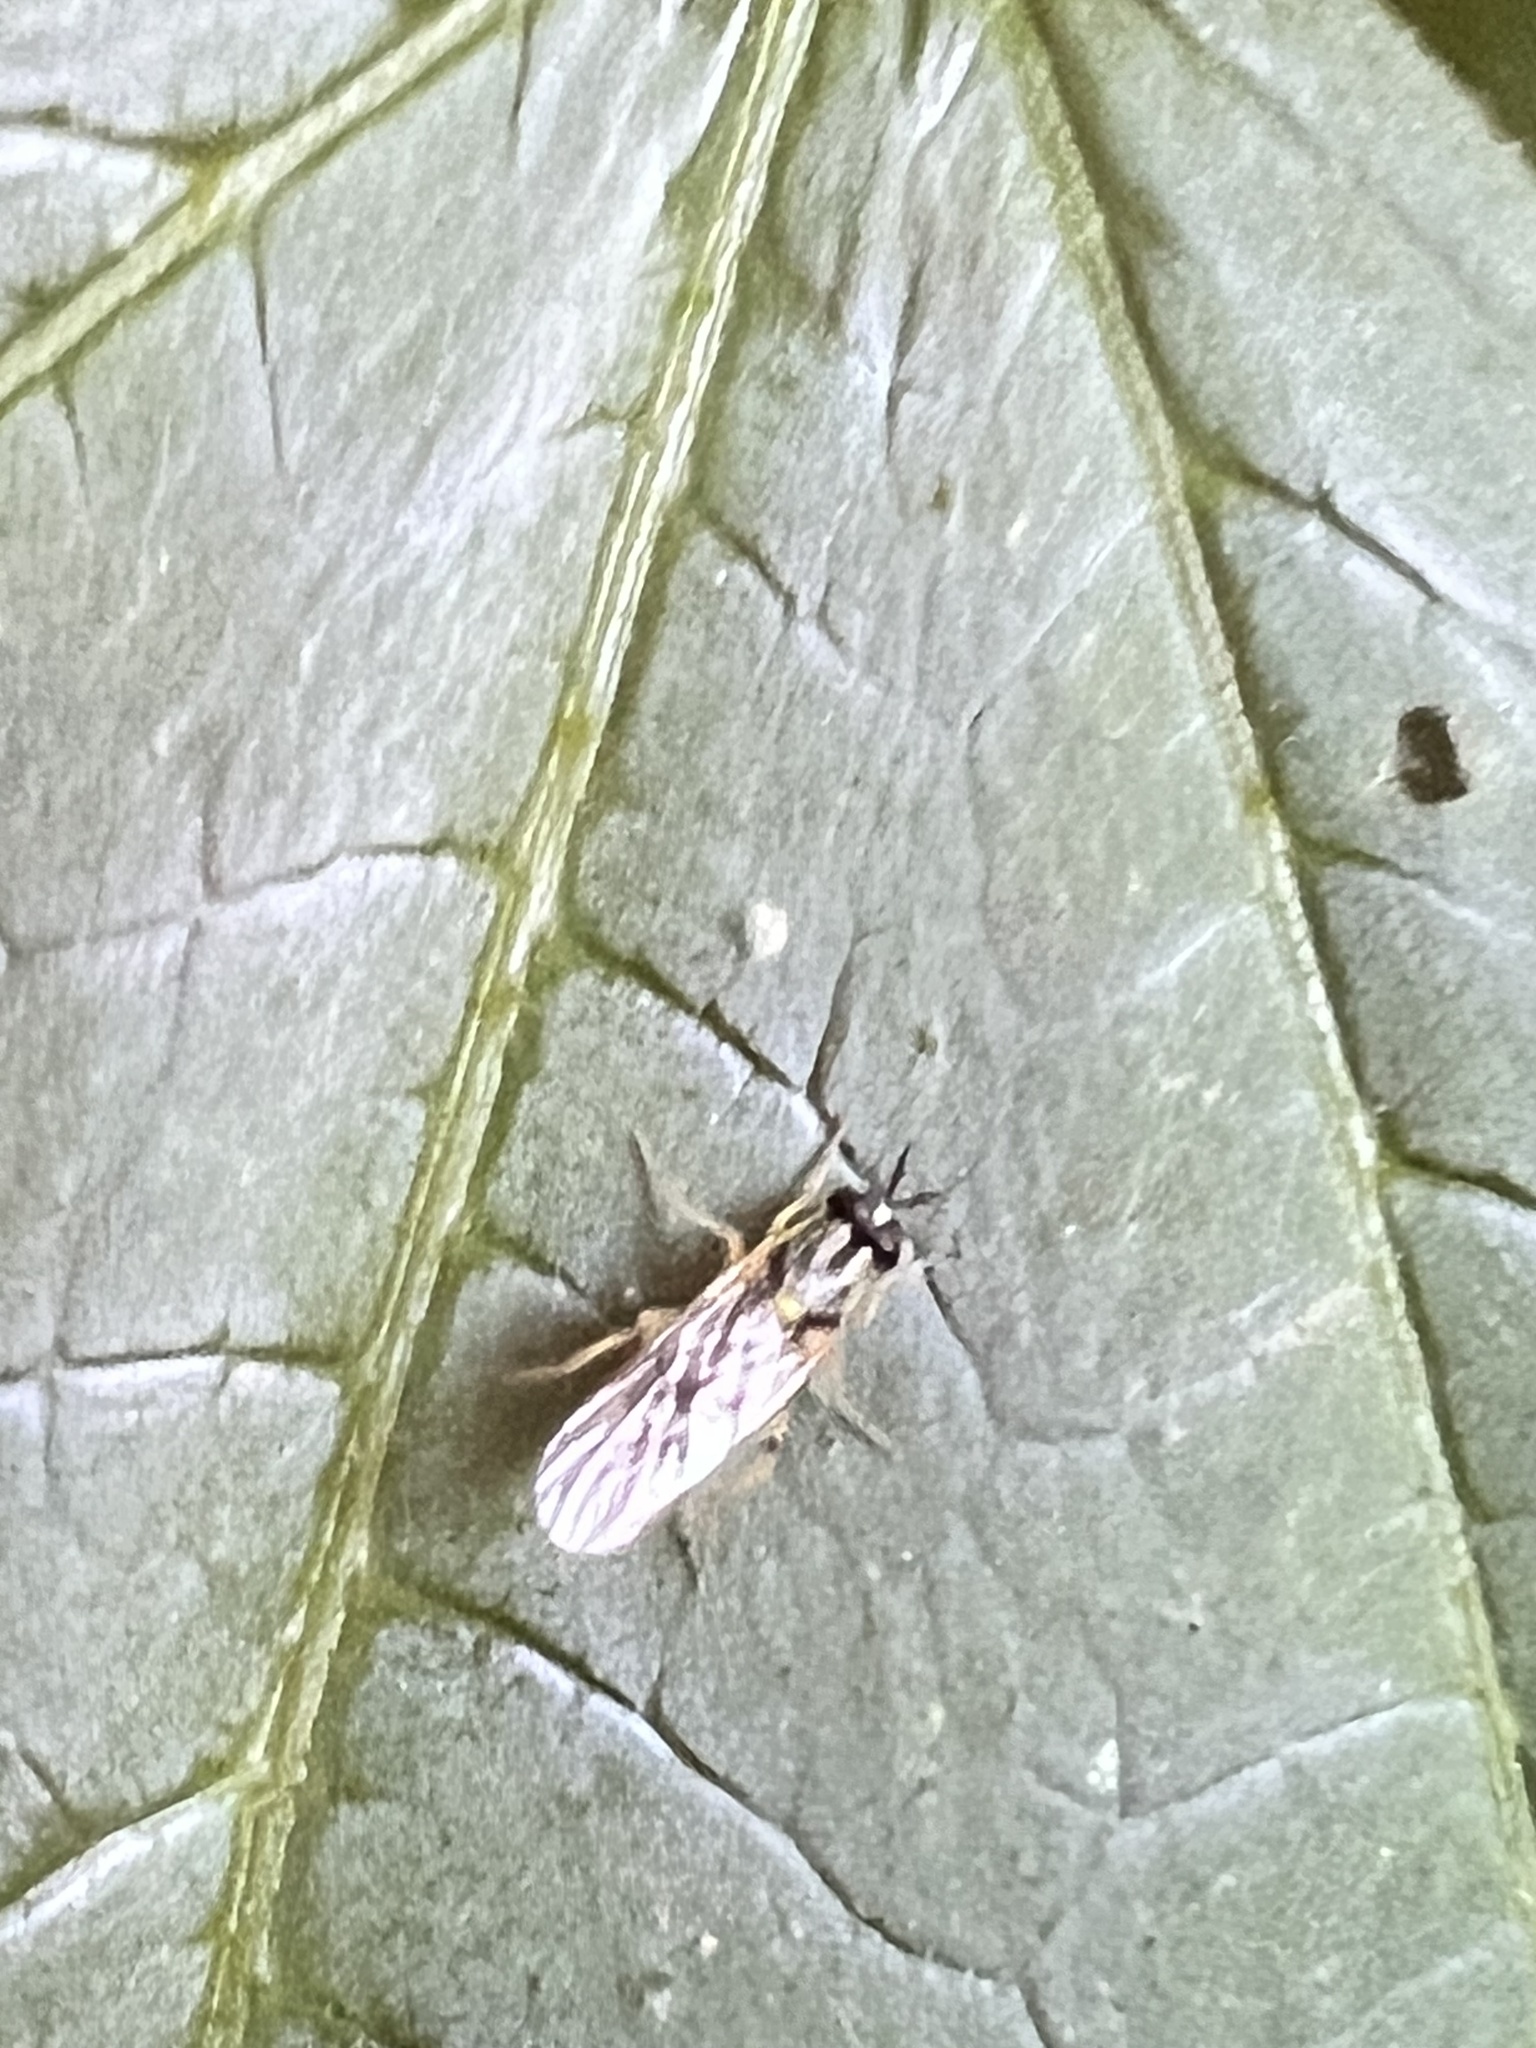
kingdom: Animalia
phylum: Arthropoda
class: Insecta
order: Diptera
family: Xylomyidae
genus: Solva
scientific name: Solva pallipes
